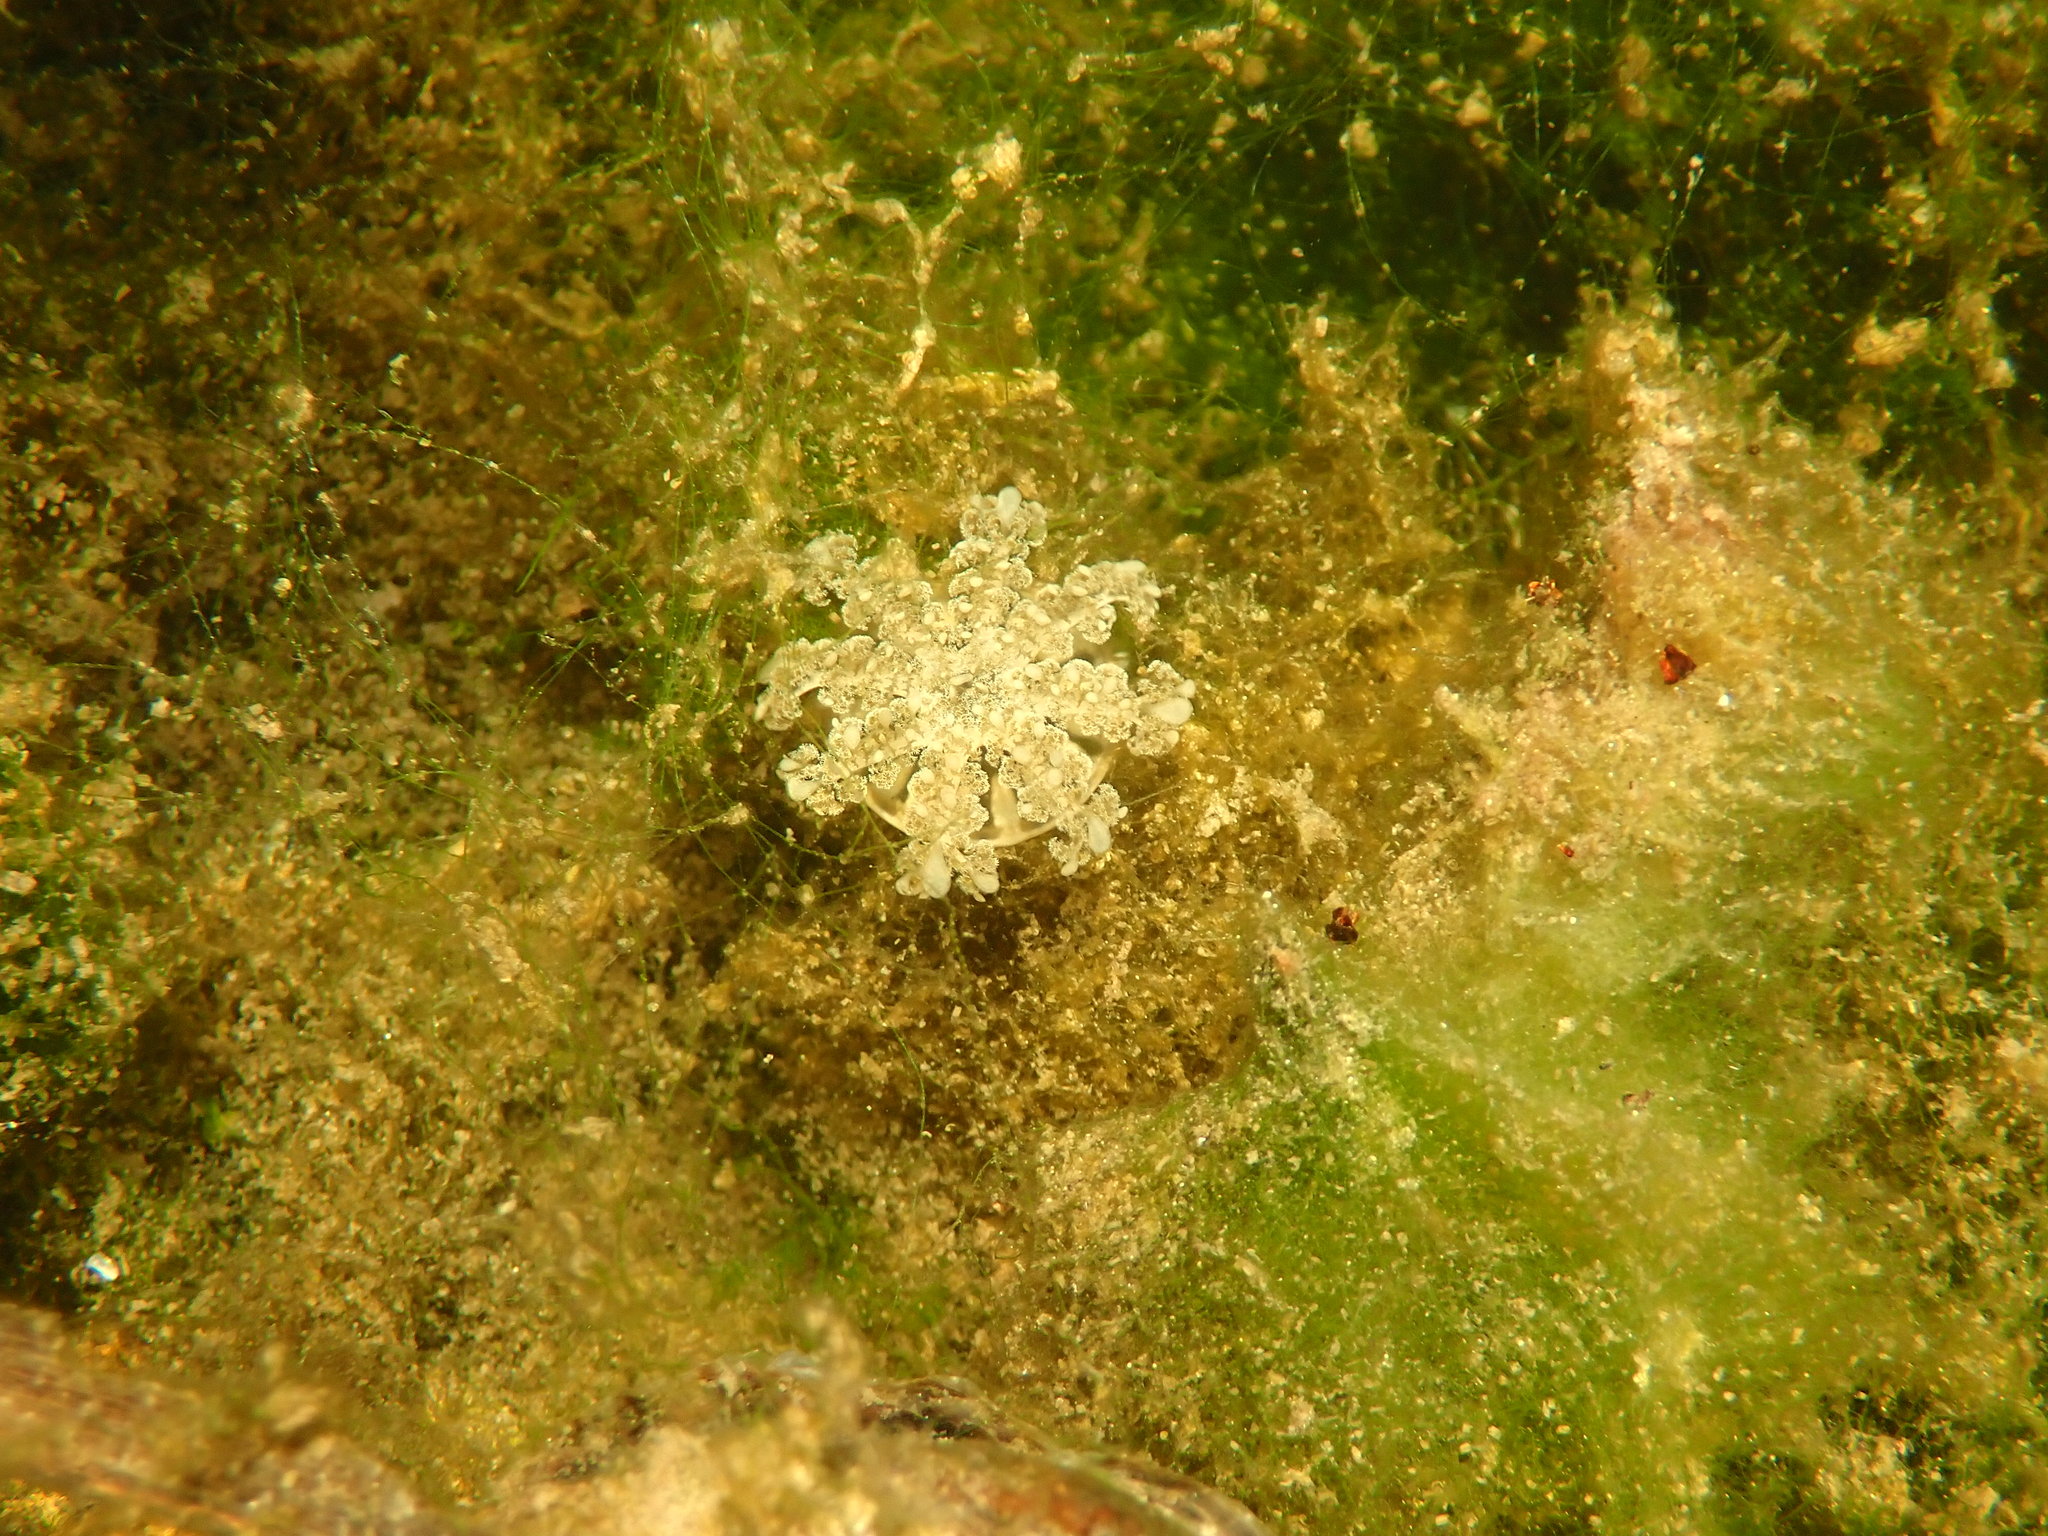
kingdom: Animalia
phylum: Cnidaria
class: Scyphozoa
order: Rhizostomeae
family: Cassiopeidae
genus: Cassiopea
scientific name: Cassiopea andromeda
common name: Upside-down jellyfish
